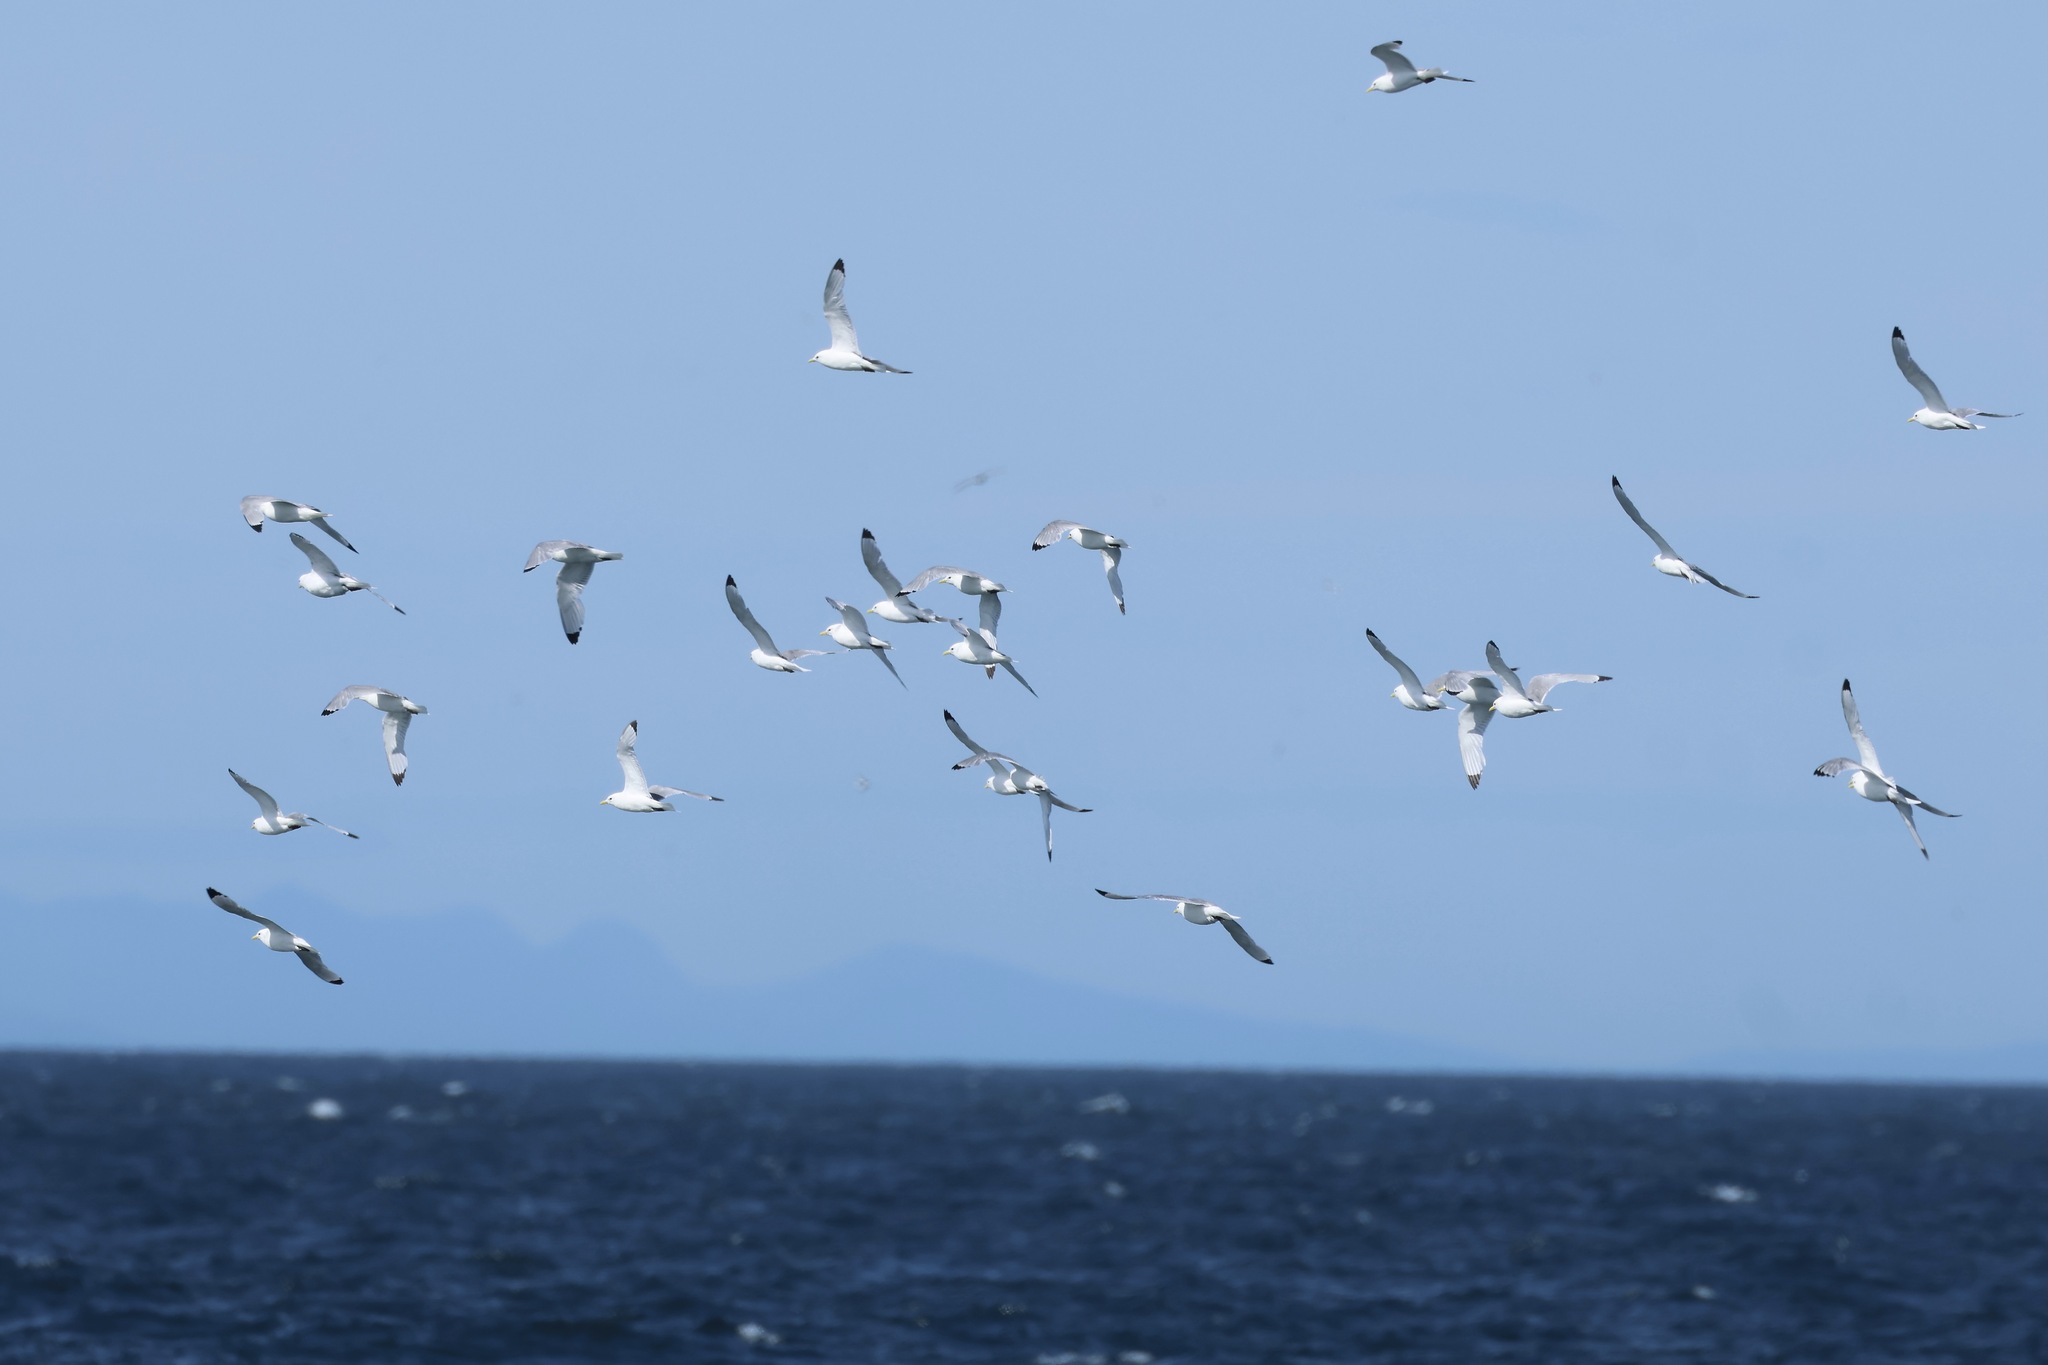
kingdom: Animalia
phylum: Chordata
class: Aves
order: Charadriiformes
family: Laridae
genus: Rissa
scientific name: Rissa tridactyla
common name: Black-legged kittiwake
